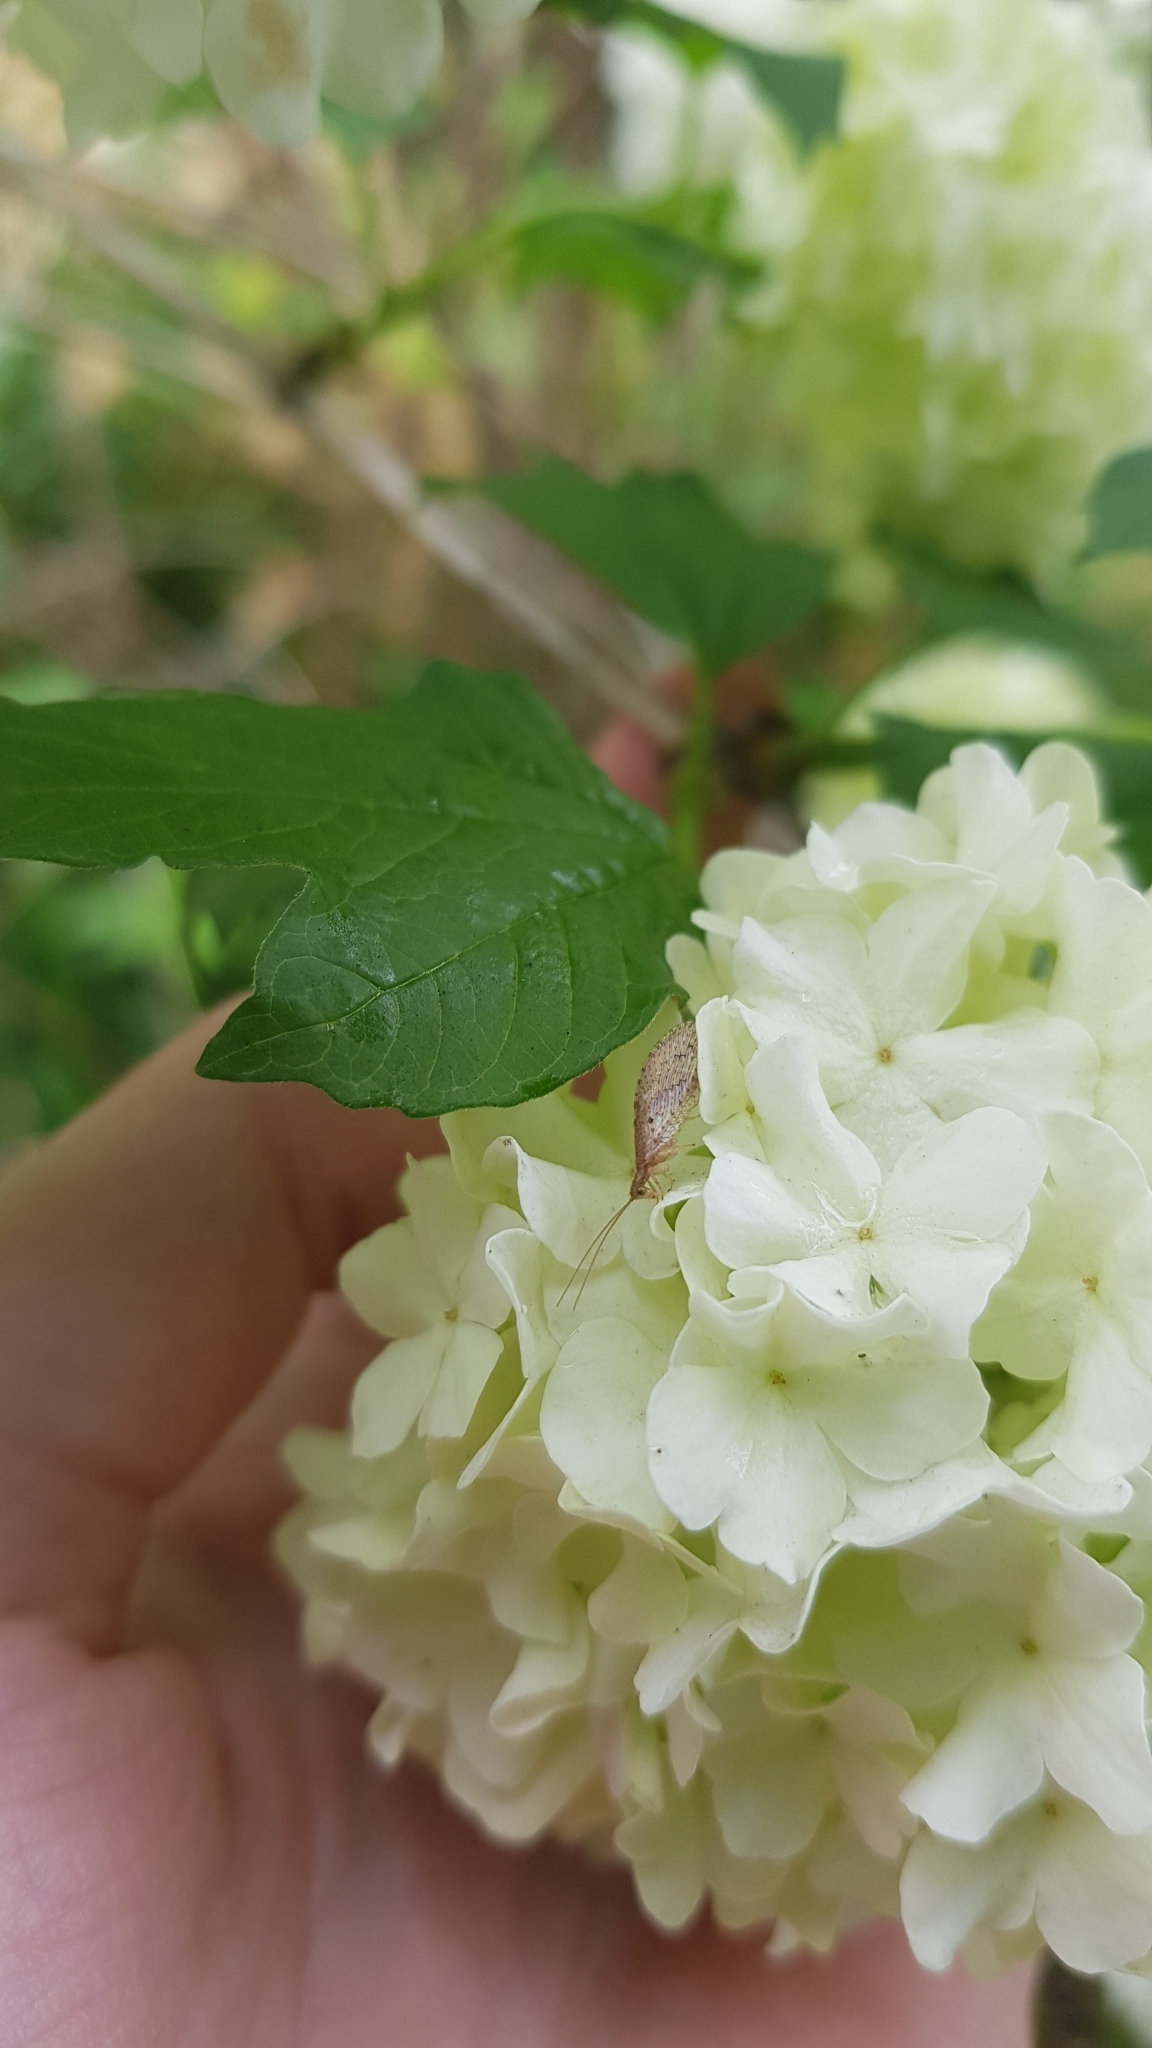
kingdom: Animalia
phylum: Arthropoda
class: Insecta
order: Neuroptera
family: Hemerobiidae
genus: Micromus
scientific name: Micromus tasmaniae
